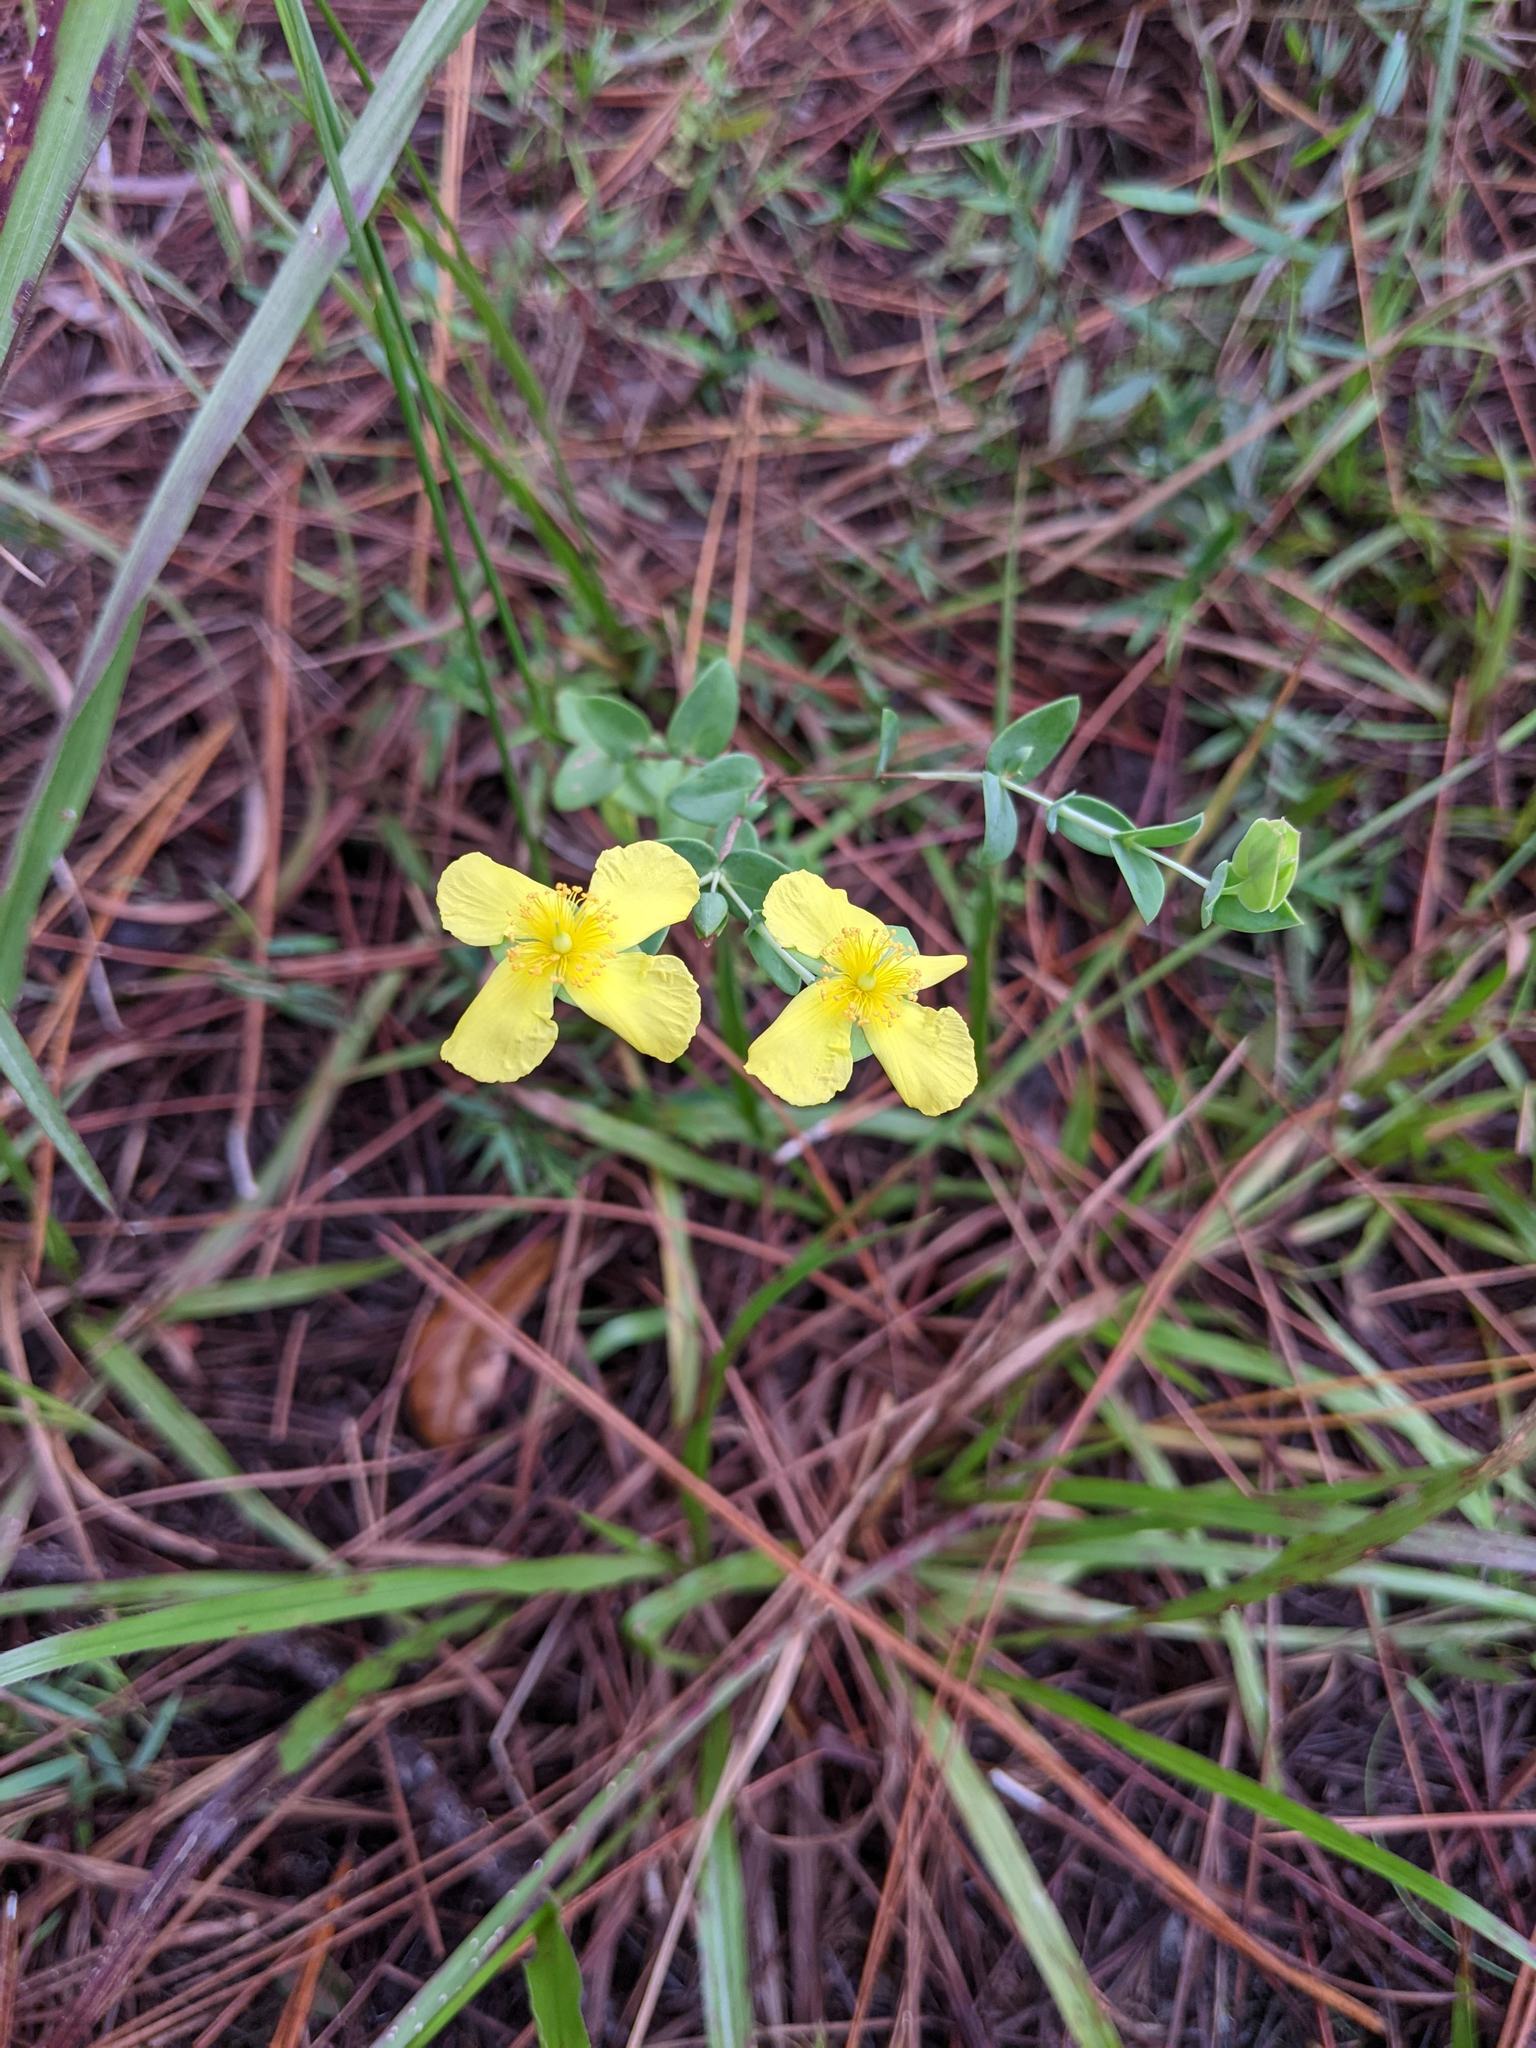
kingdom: Plantae
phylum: Tracheophyta
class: Magnoliopsida
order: Malpighiales
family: Hypericaceae
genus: Hypericum
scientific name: Hypericum tetrapetalum
